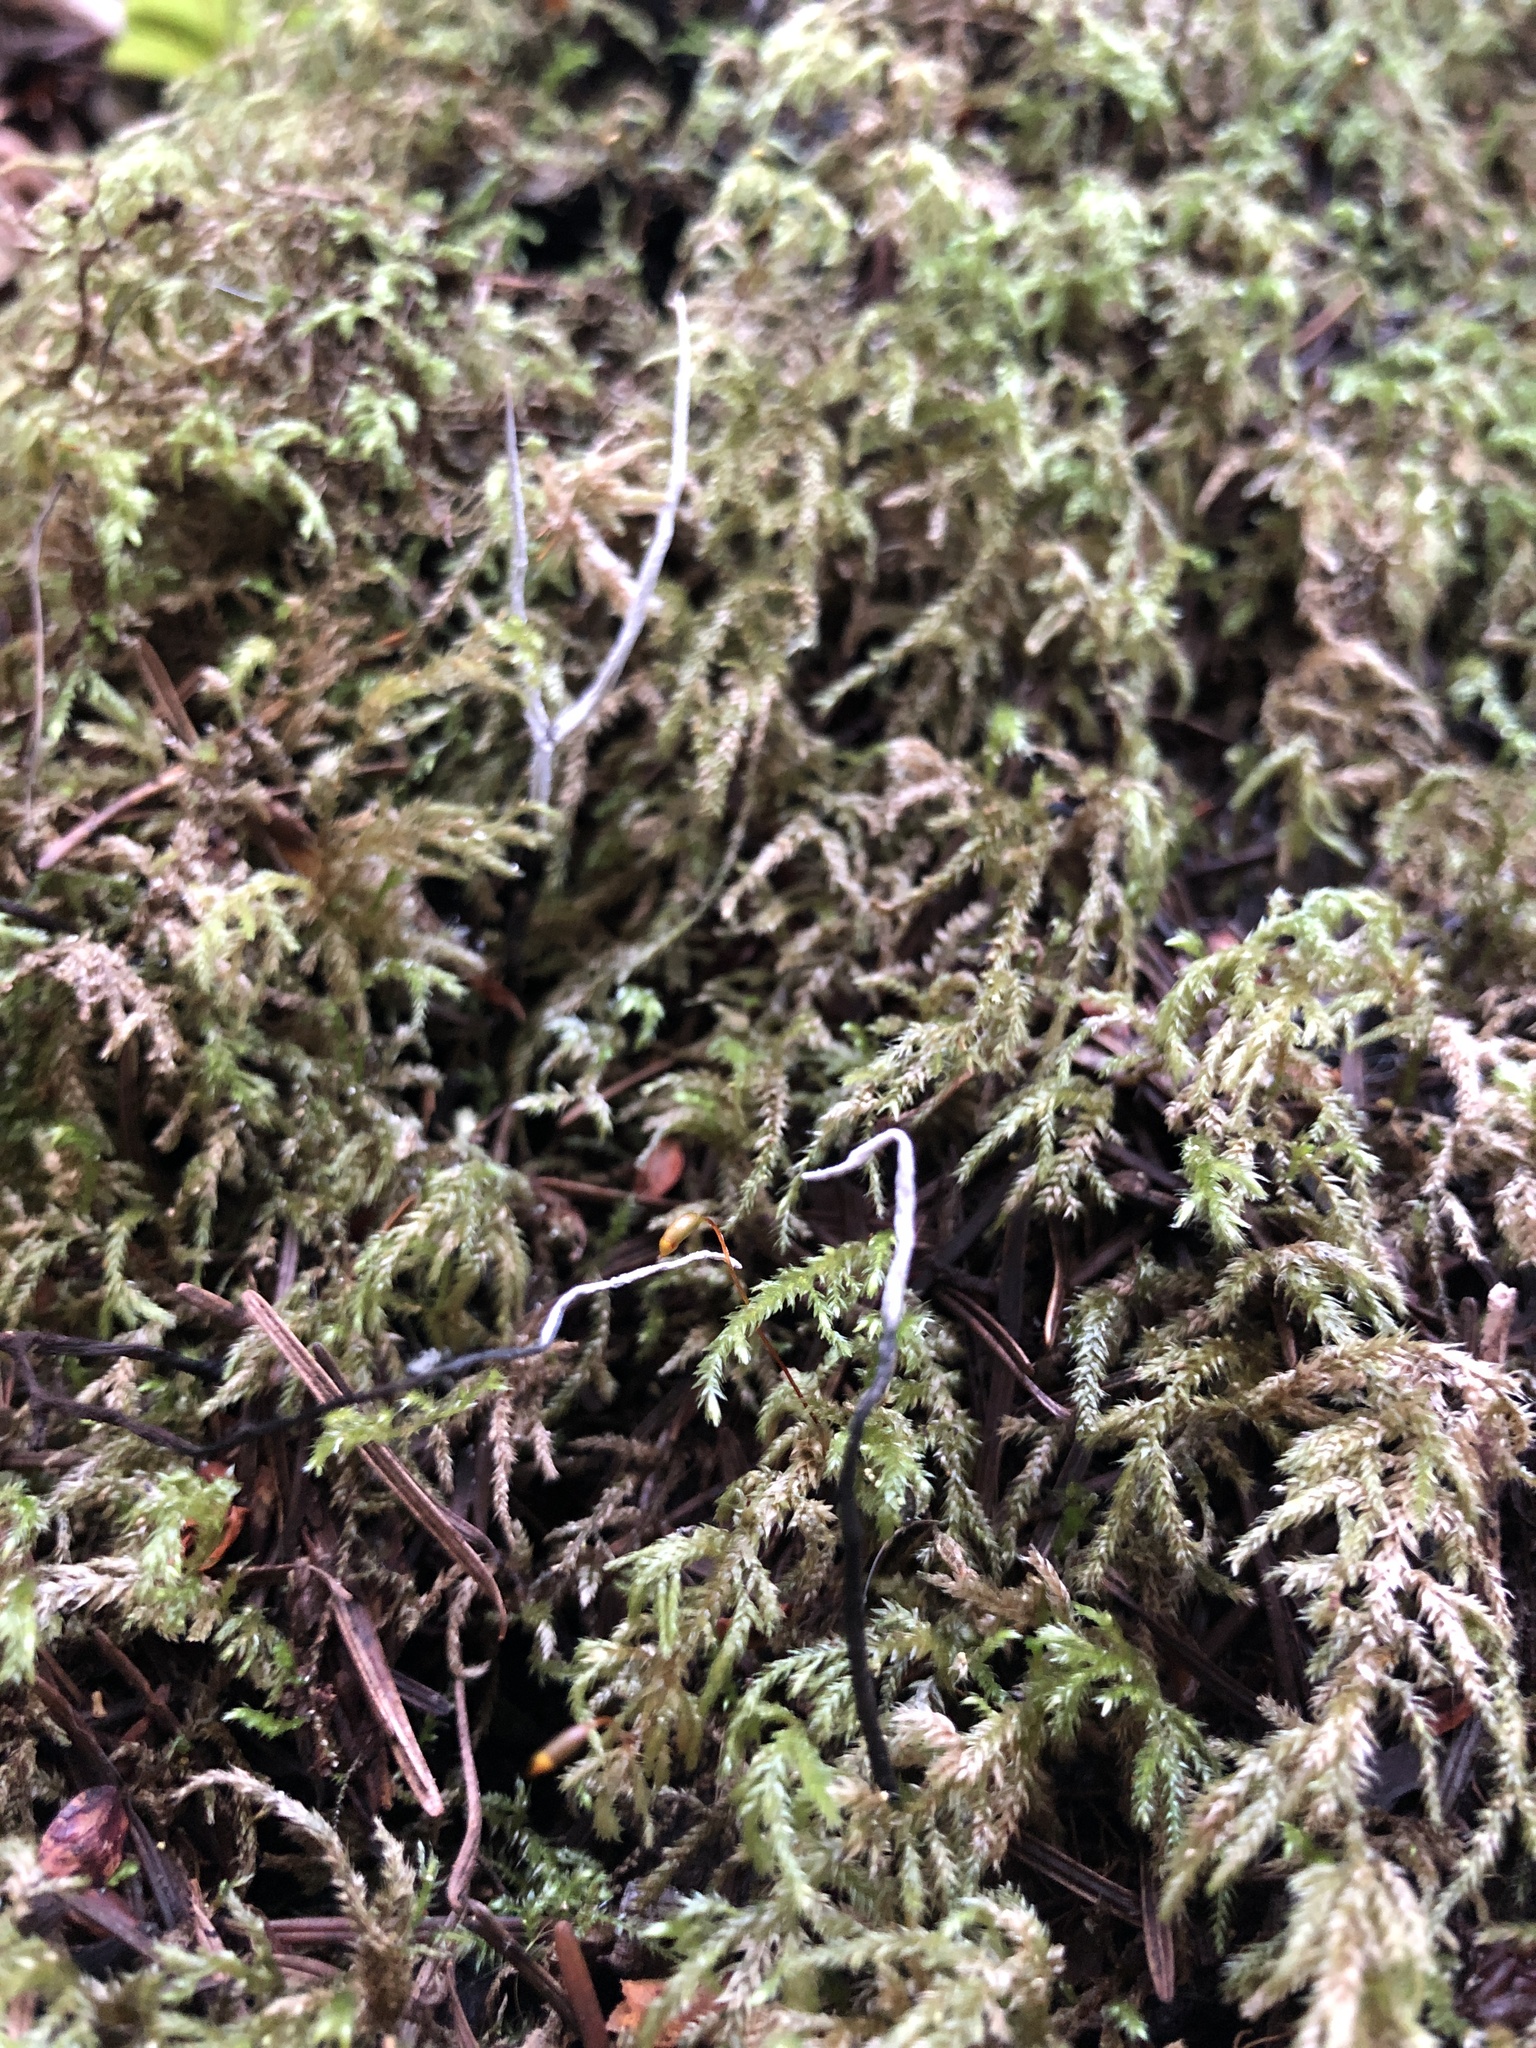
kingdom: Fungi
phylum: Ascomycota
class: Sordariomycetes
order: Xylariales
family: Xylariaceae
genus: Xylaria
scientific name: Xylaria hypoxylon
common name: Candle-snuff fungus
